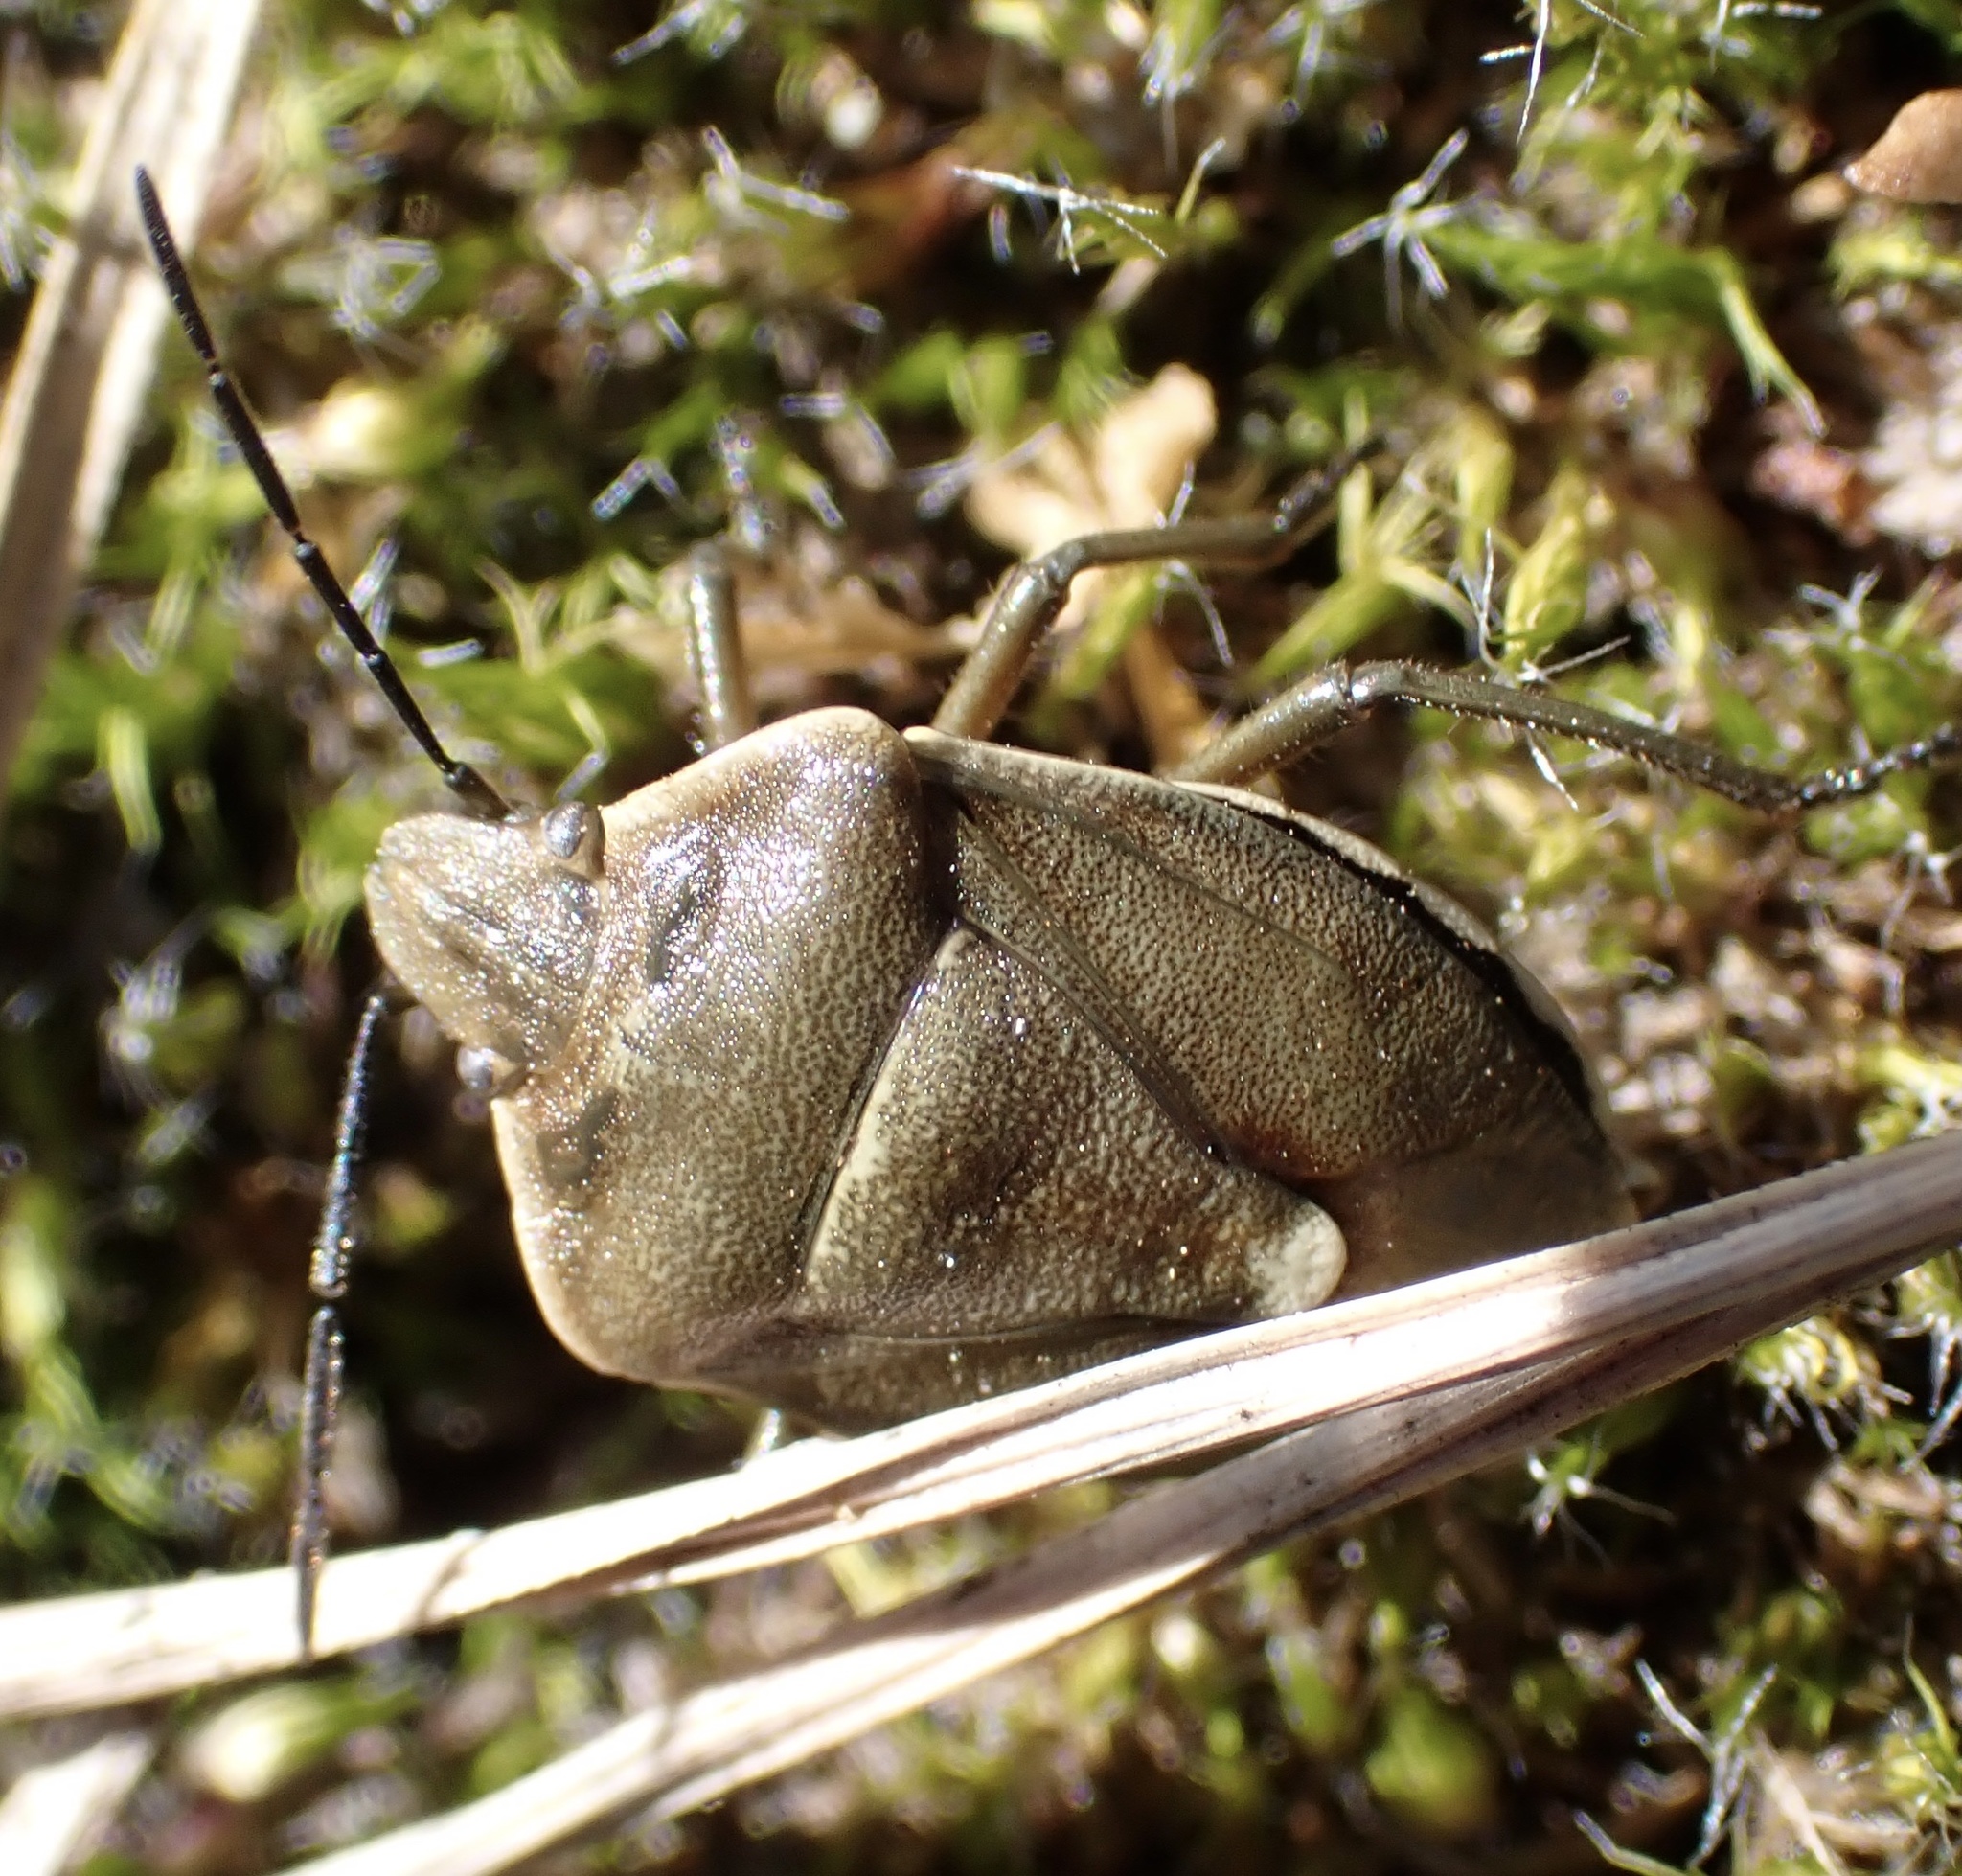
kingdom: Animalia
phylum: Arthropoda
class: Insecta
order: Hemiptera
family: Pentatomidae
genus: Chlorochroa
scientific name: Chlorochroa pinicola
